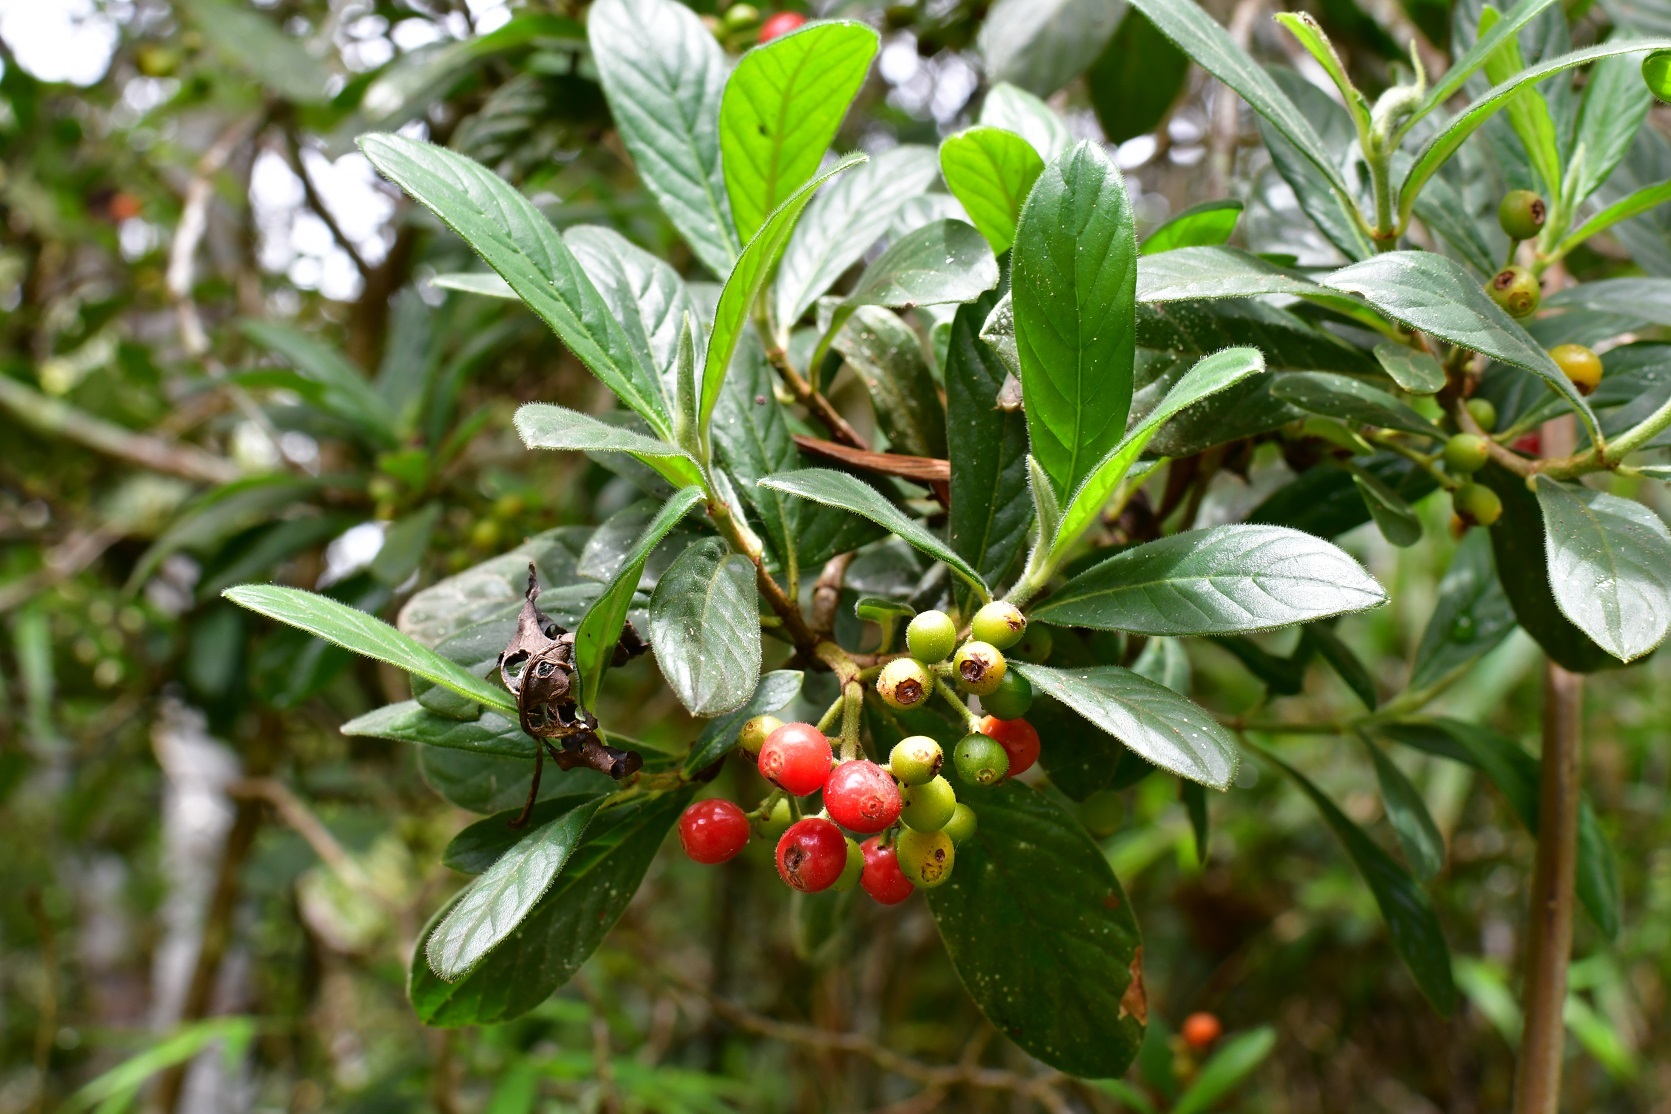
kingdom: Plantae
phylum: Tracheophyta
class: Magnoliopsida
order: Gentianales
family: Rubiaceae
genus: Psychotria
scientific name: Psychotria erythrocarpa
